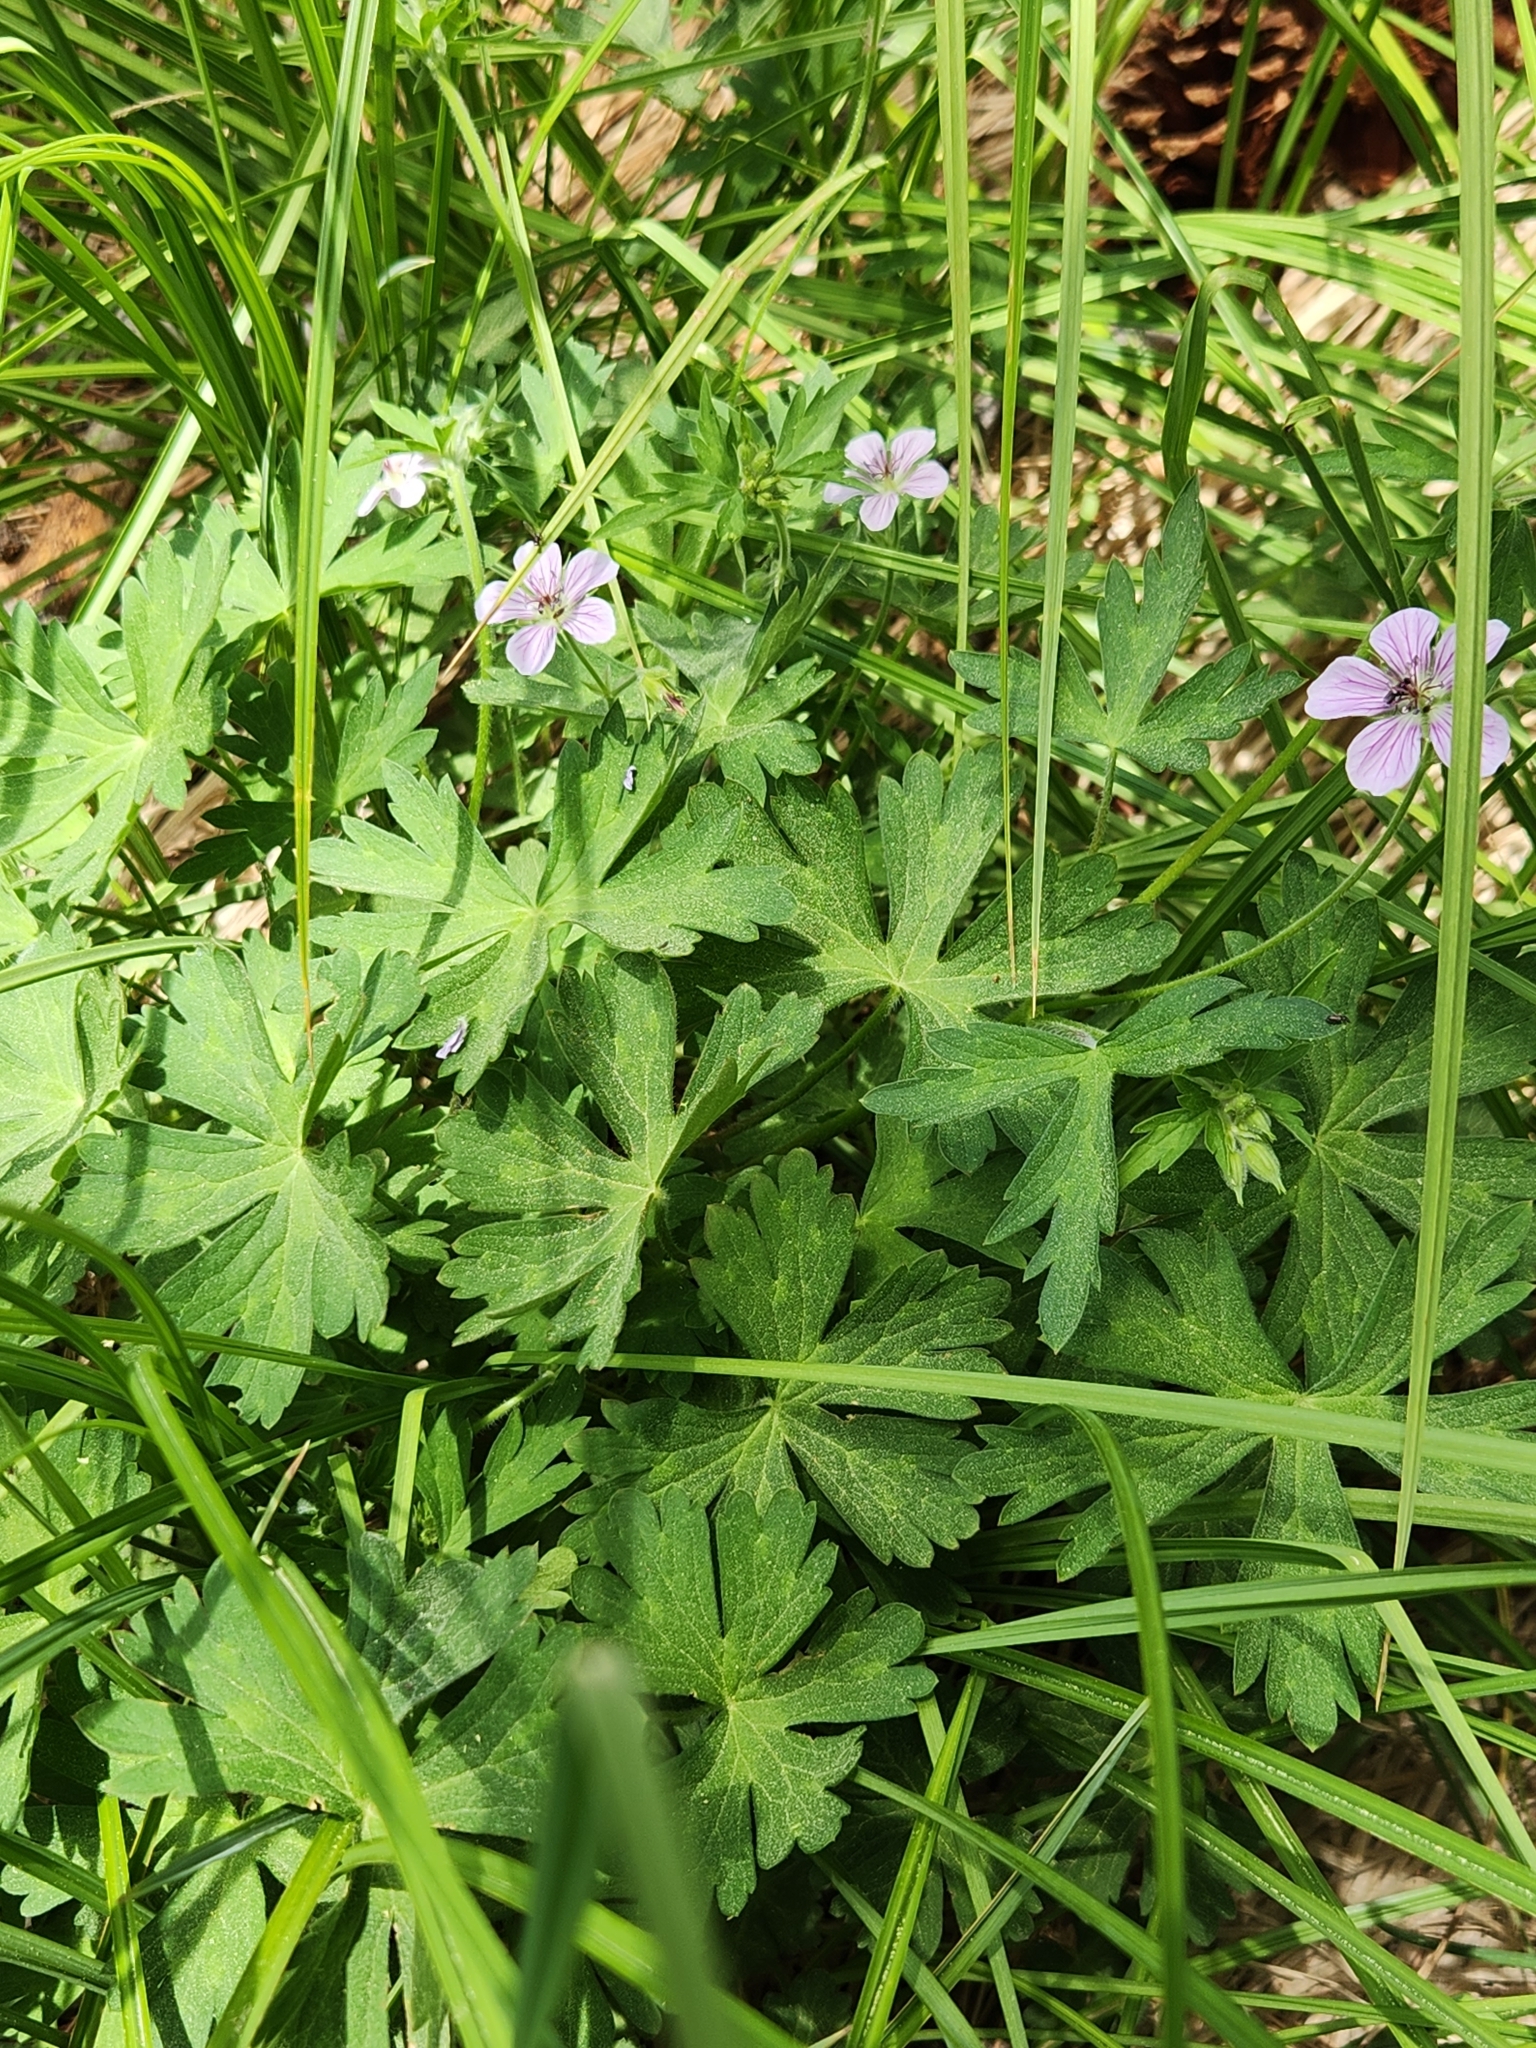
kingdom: Plantae
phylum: Tracheophyta
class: Magnoliopsida
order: Geraniales
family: Geraniaceae
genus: Geranium
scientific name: Geranium californicum
